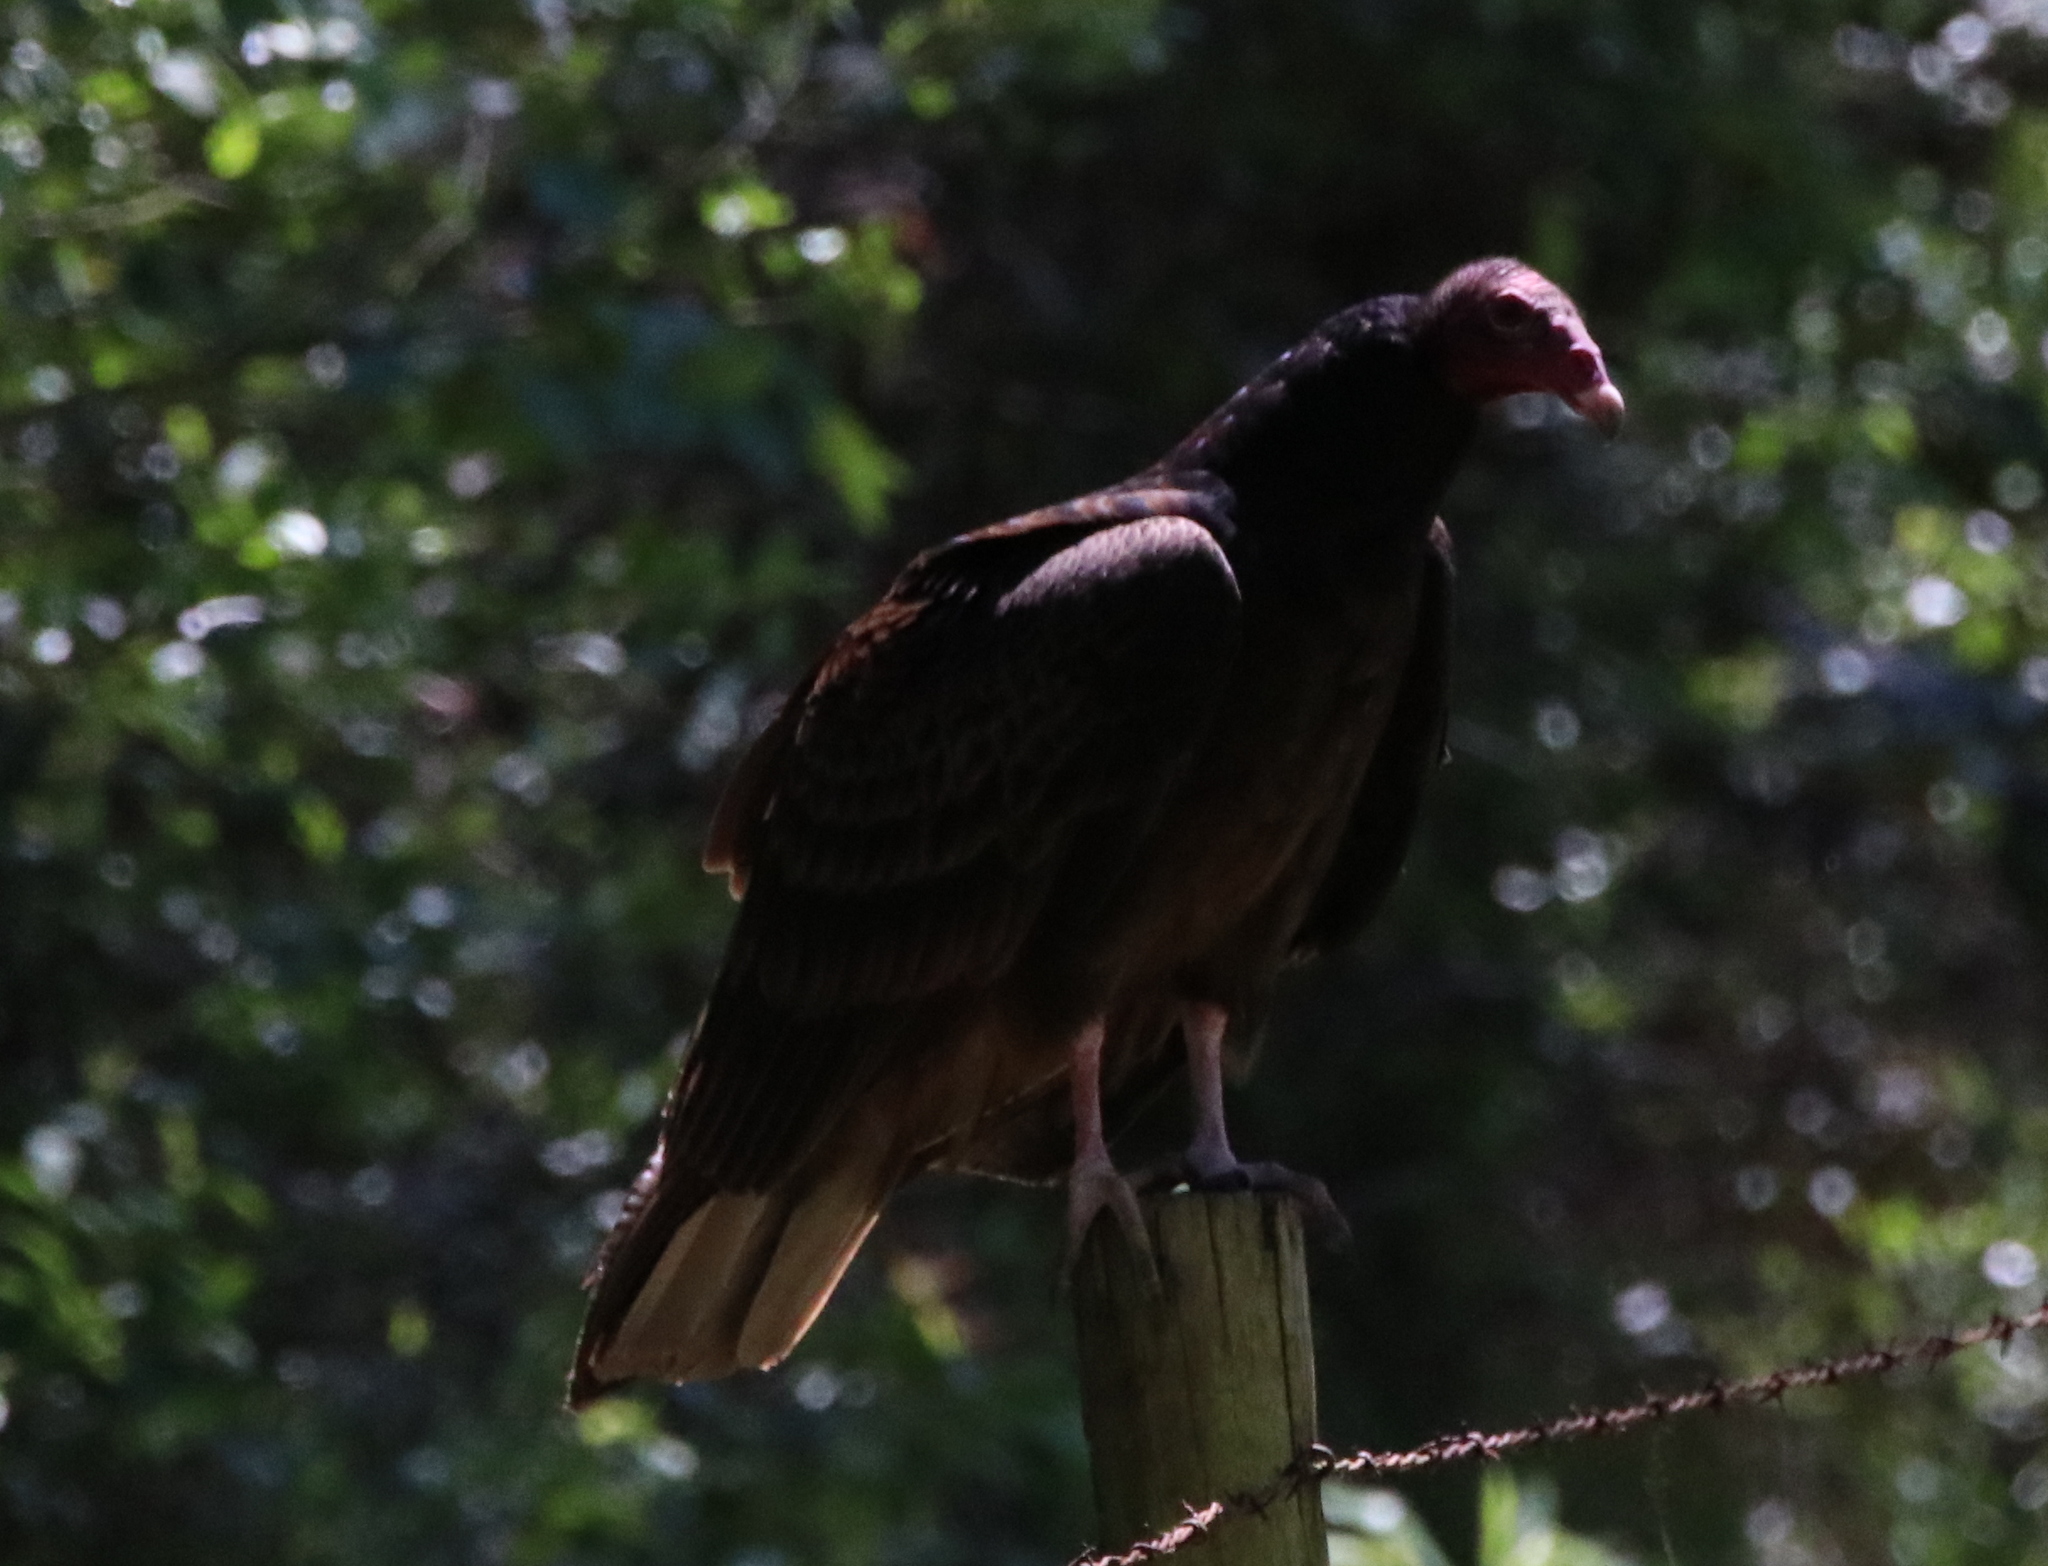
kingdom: Animalia
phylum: Chordata
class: Aves
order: Accipitriformes
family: Cathartidae
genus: Cathartes
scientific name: Cathartes aura
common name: Turkey vulture
